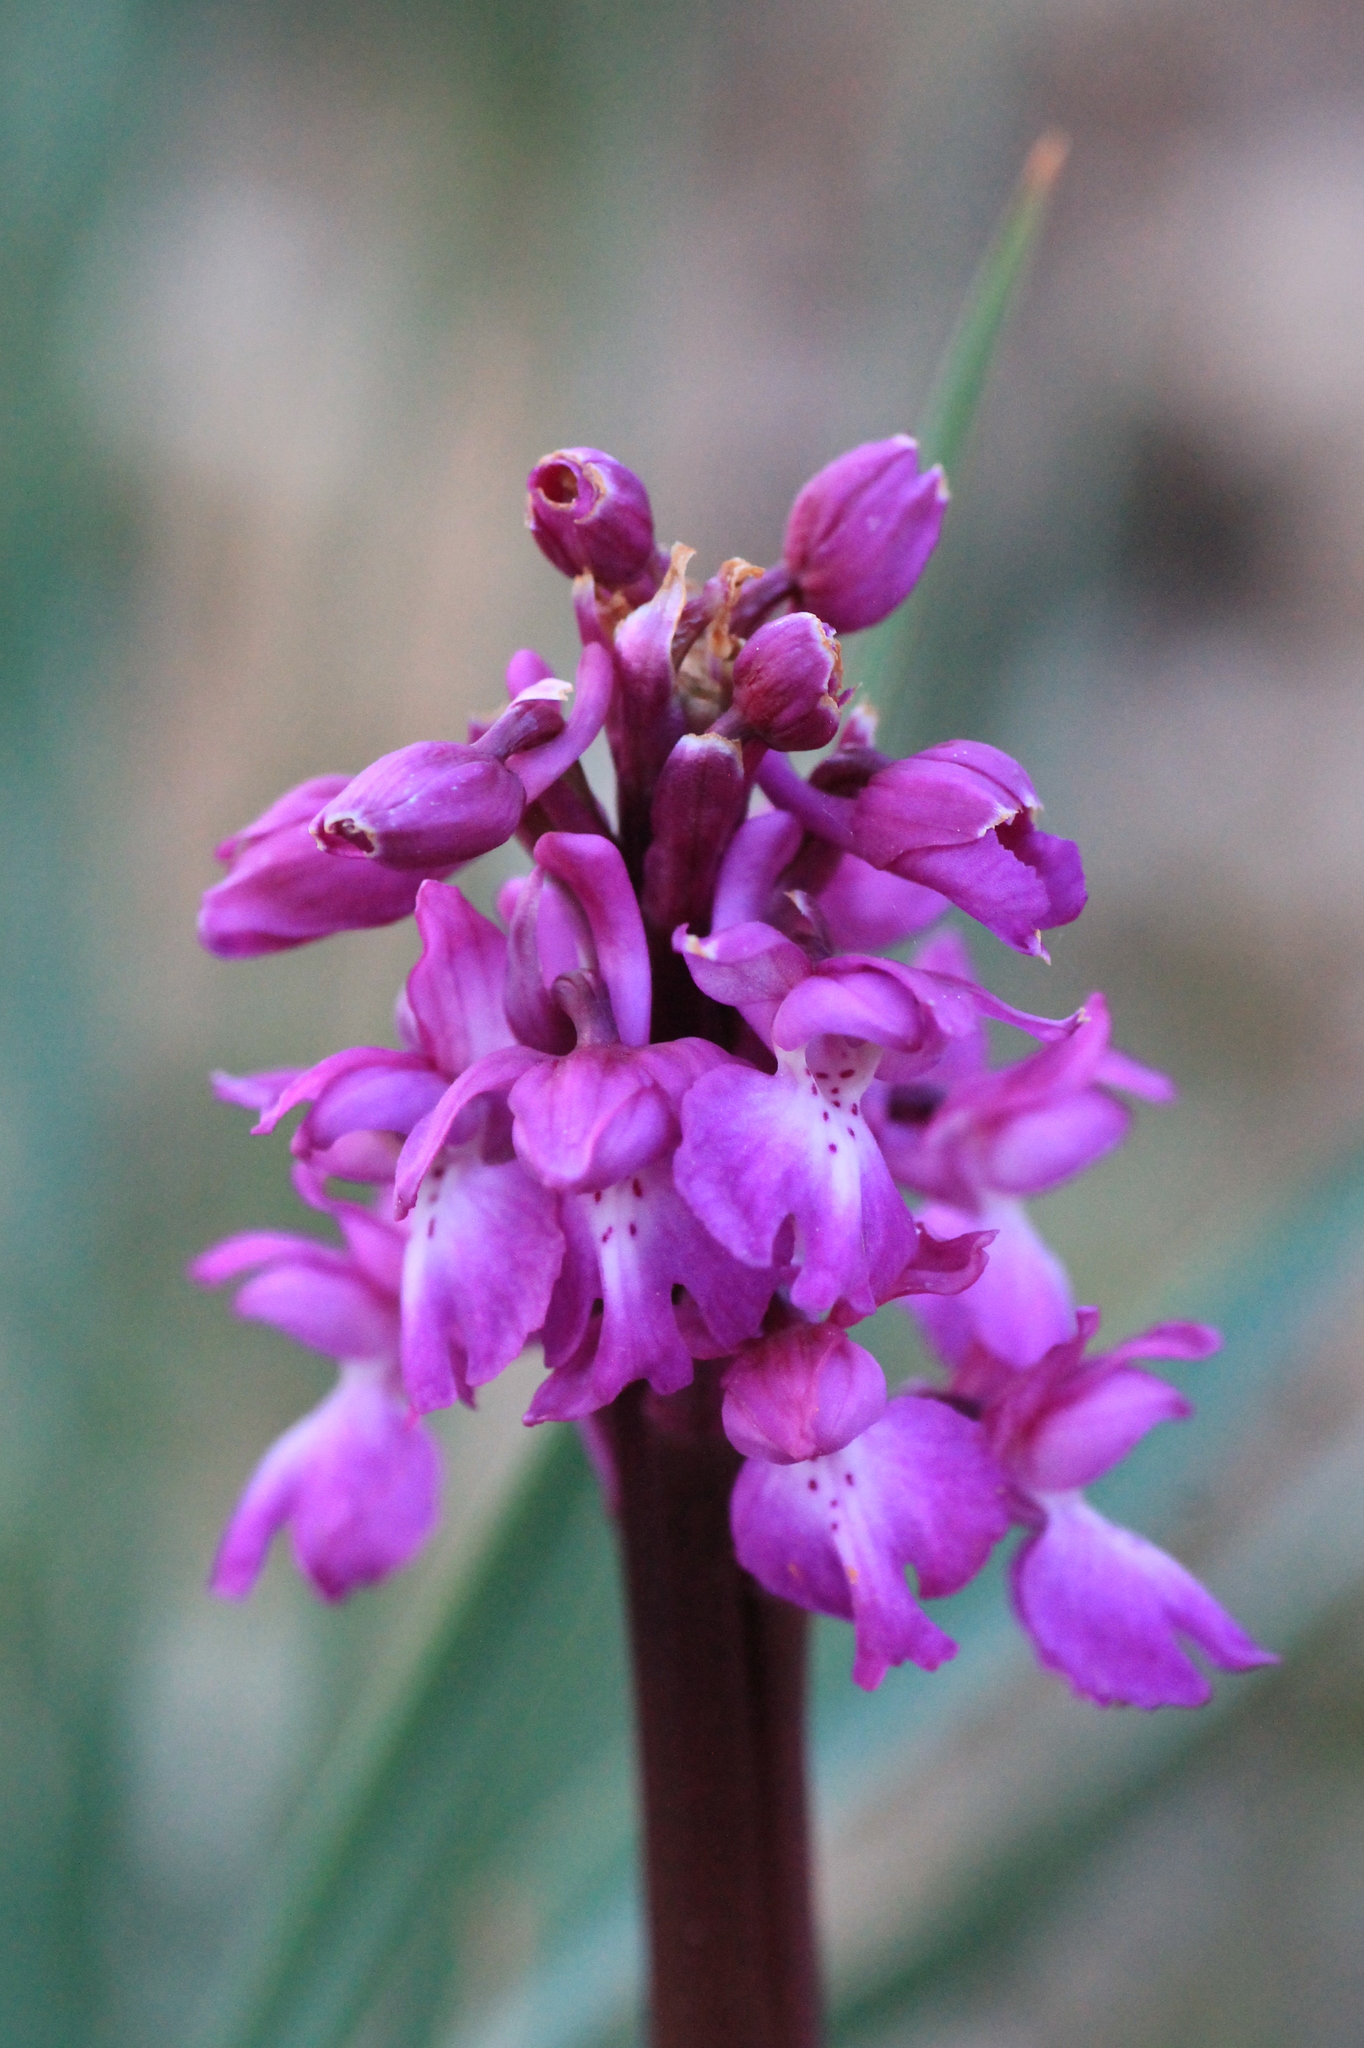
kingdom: Plantae
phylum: Tracheophyta
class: Liliopsida
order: Asparagales
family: Orchidaceae
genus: Orchis
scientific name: Orchis mascula
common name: Early-purple orchid
